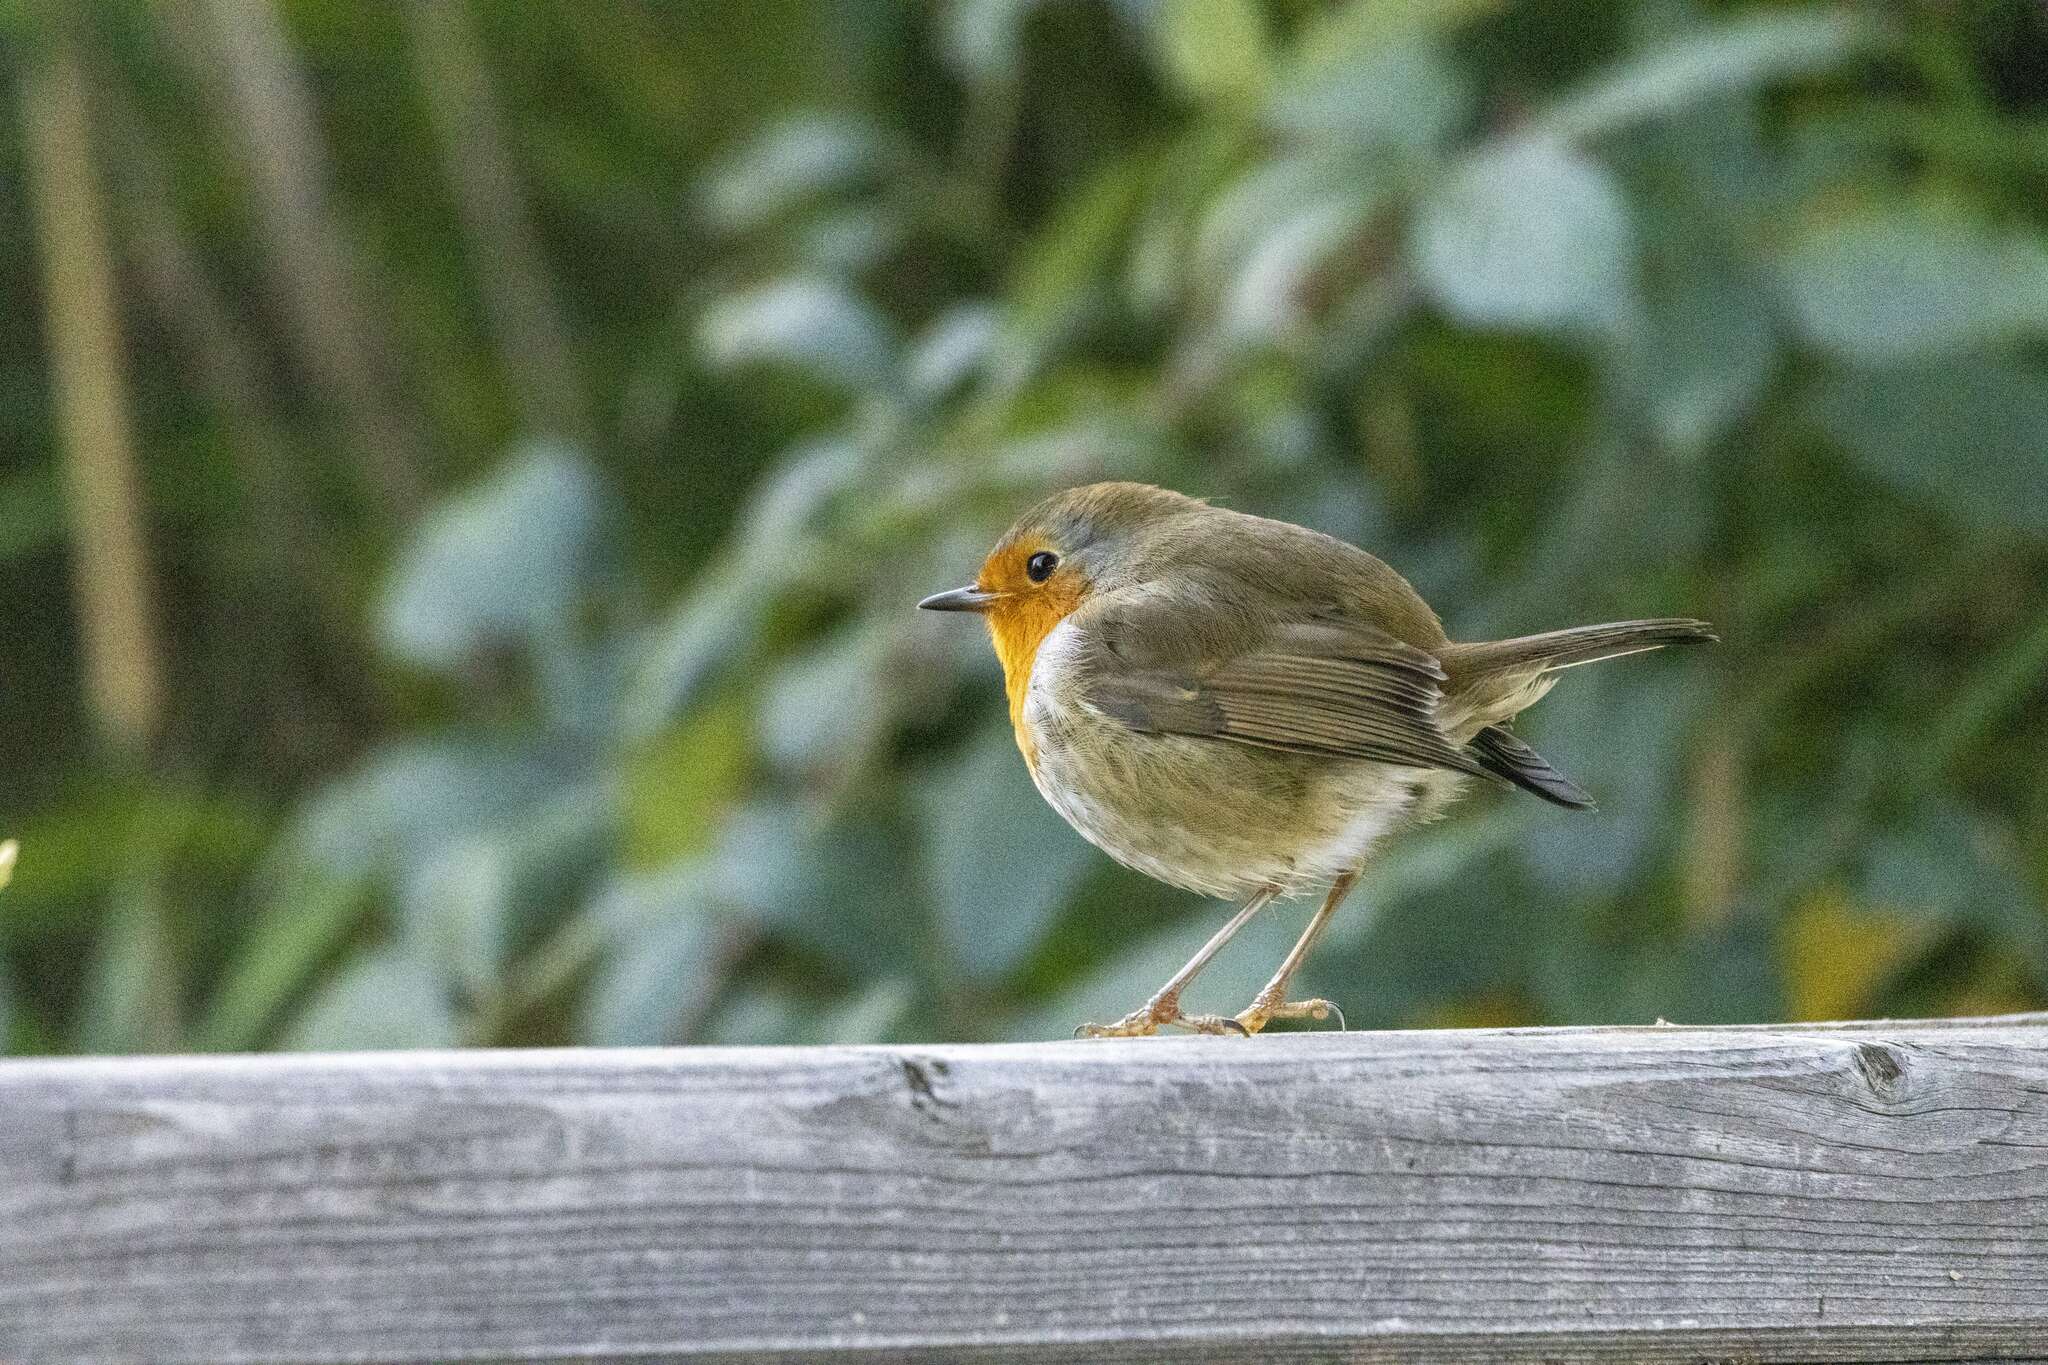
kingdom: Animalia
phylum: Chordata
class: Aves
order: Passeriformes
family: Muscicapidae
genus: Erithacus
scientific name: Erithacus rubecula
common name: European robin
